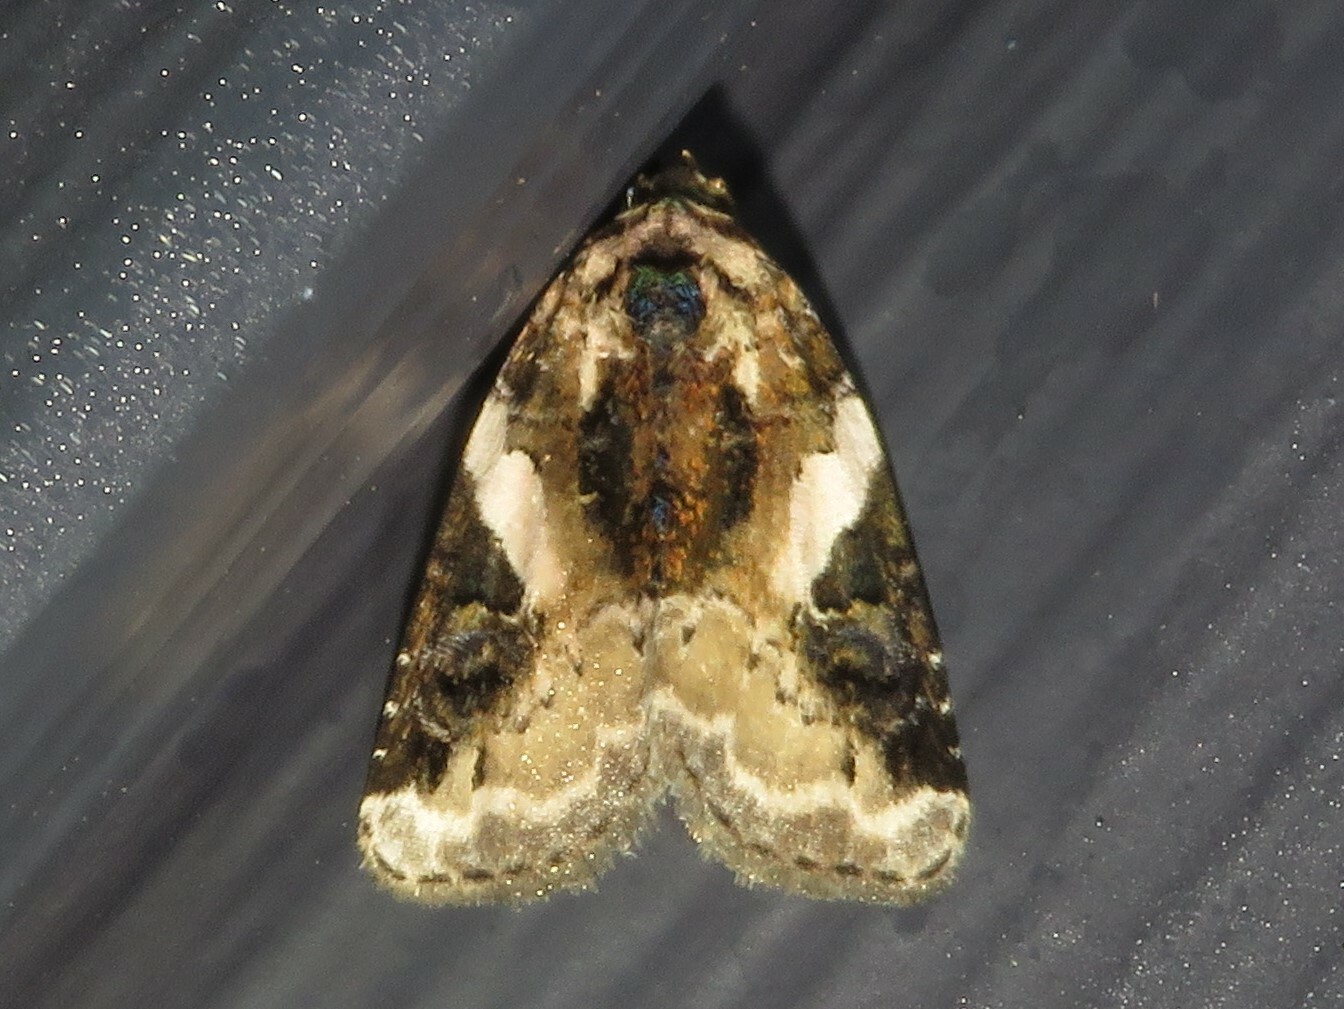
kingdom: Animalia
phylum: Arthropoda
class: Insecta
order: Lepidoptera
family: Noctuidae
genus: Pseudeustrotia
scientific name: Pseudeustrotia carneola
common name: Pink-barred lithacodia moth
